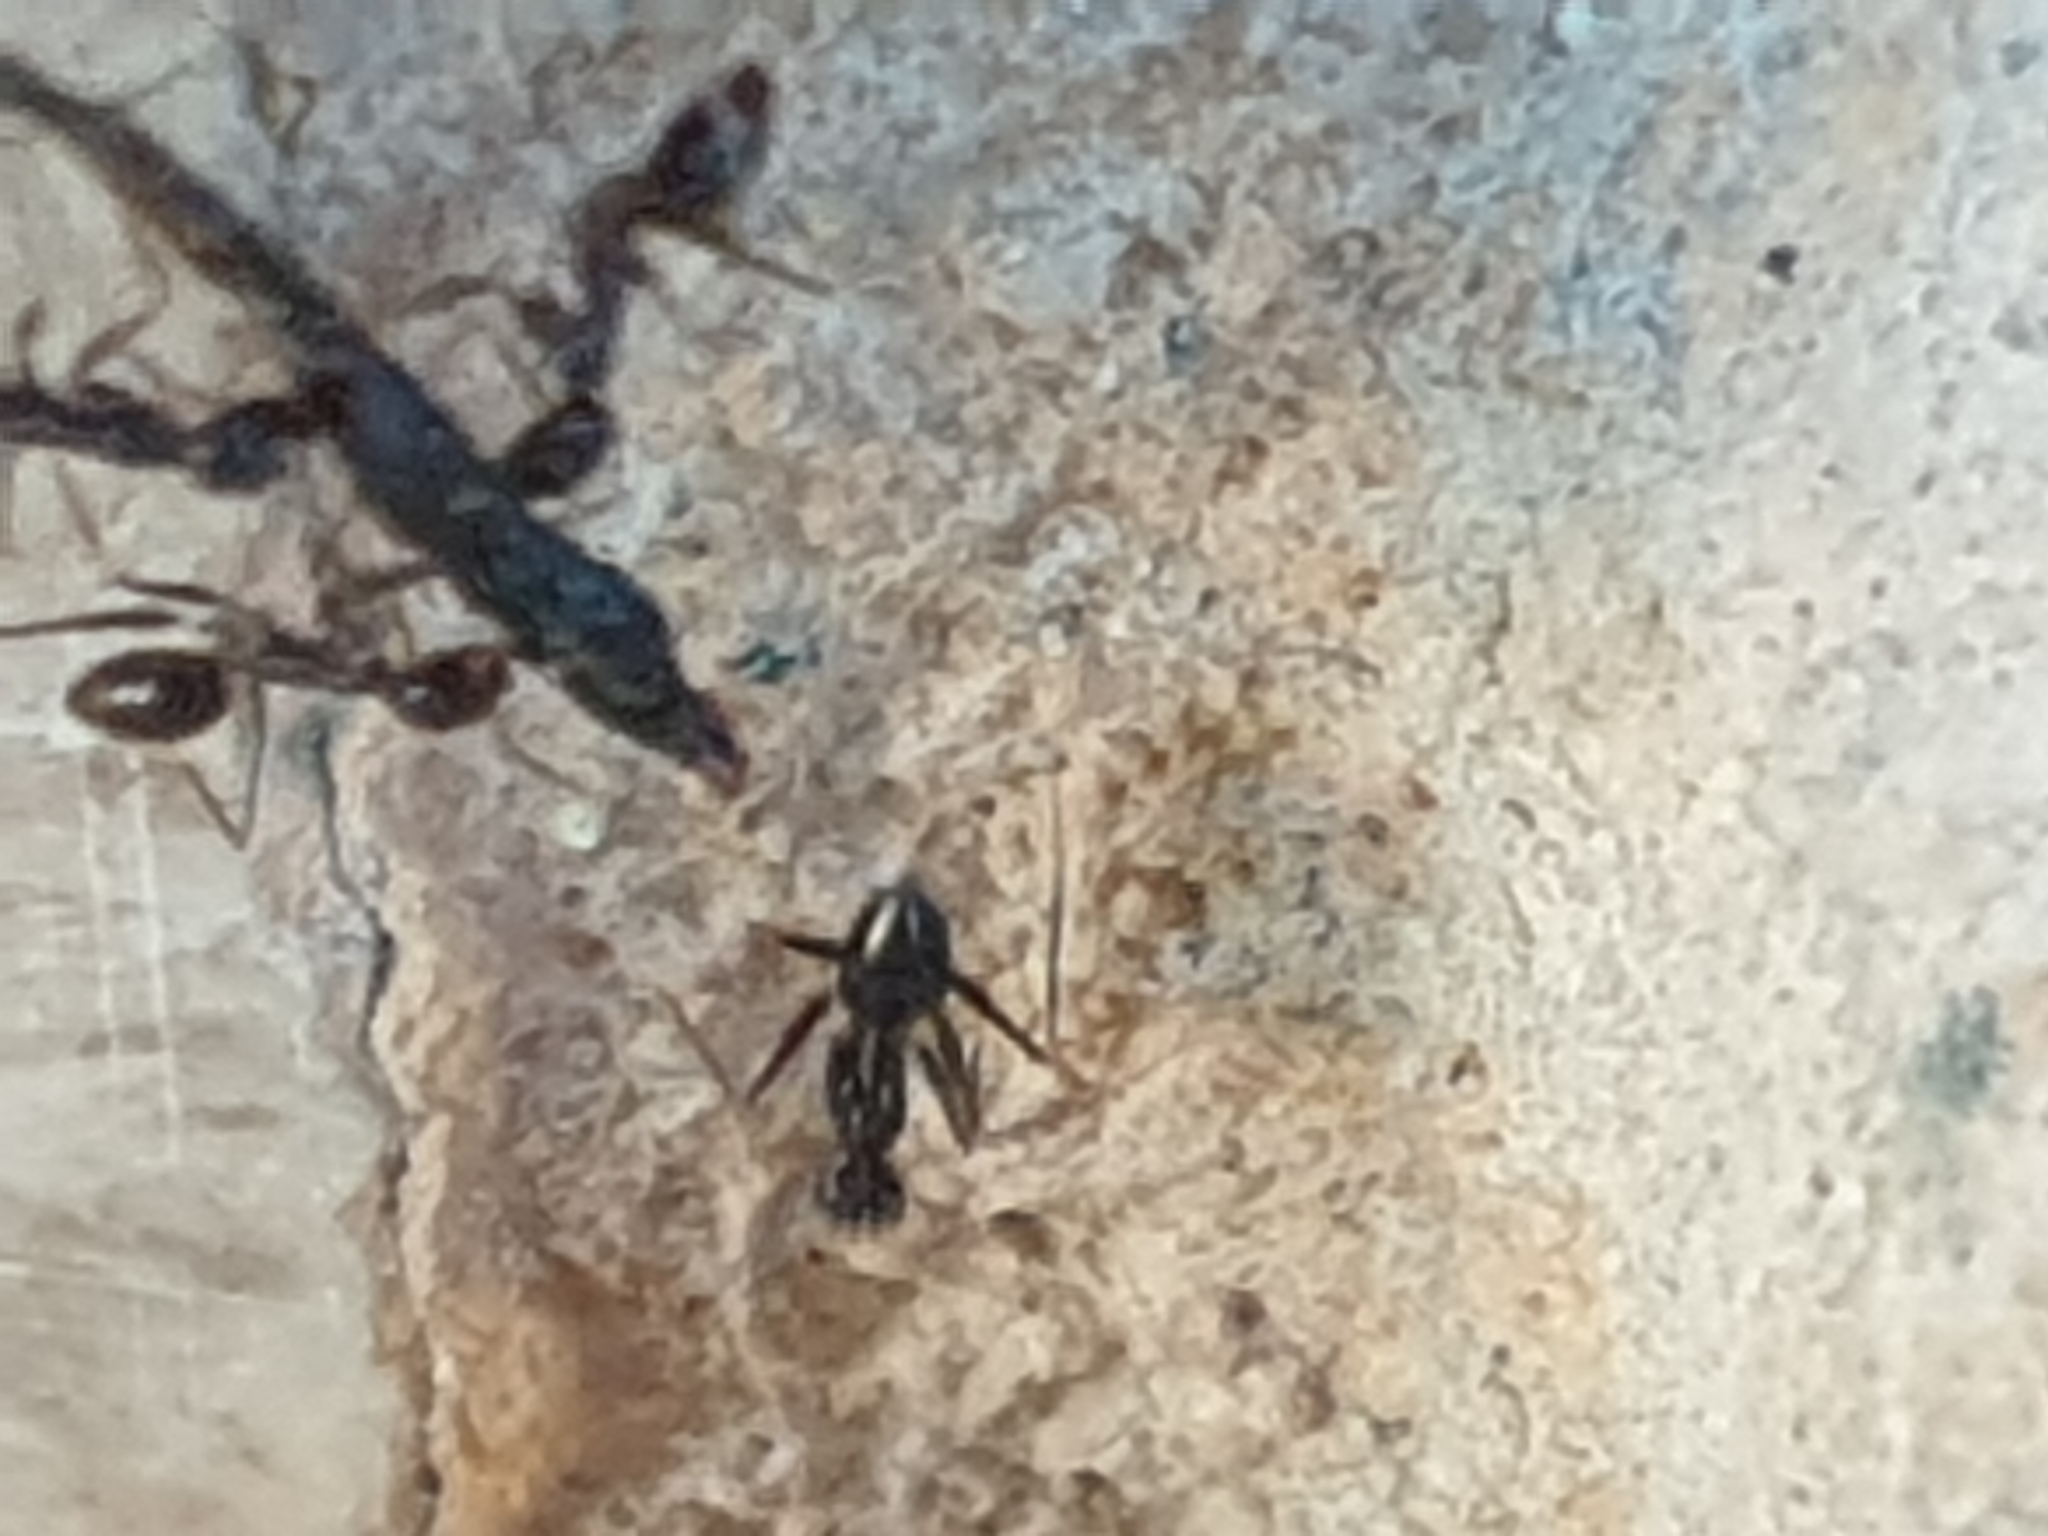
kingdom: Animalia
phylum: Arthropoda
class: Insecta
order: Hymenoptera
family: Formicidae
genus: Paratrechina
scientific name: Paratrechina longicornis
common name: Longhorned crazy ant
